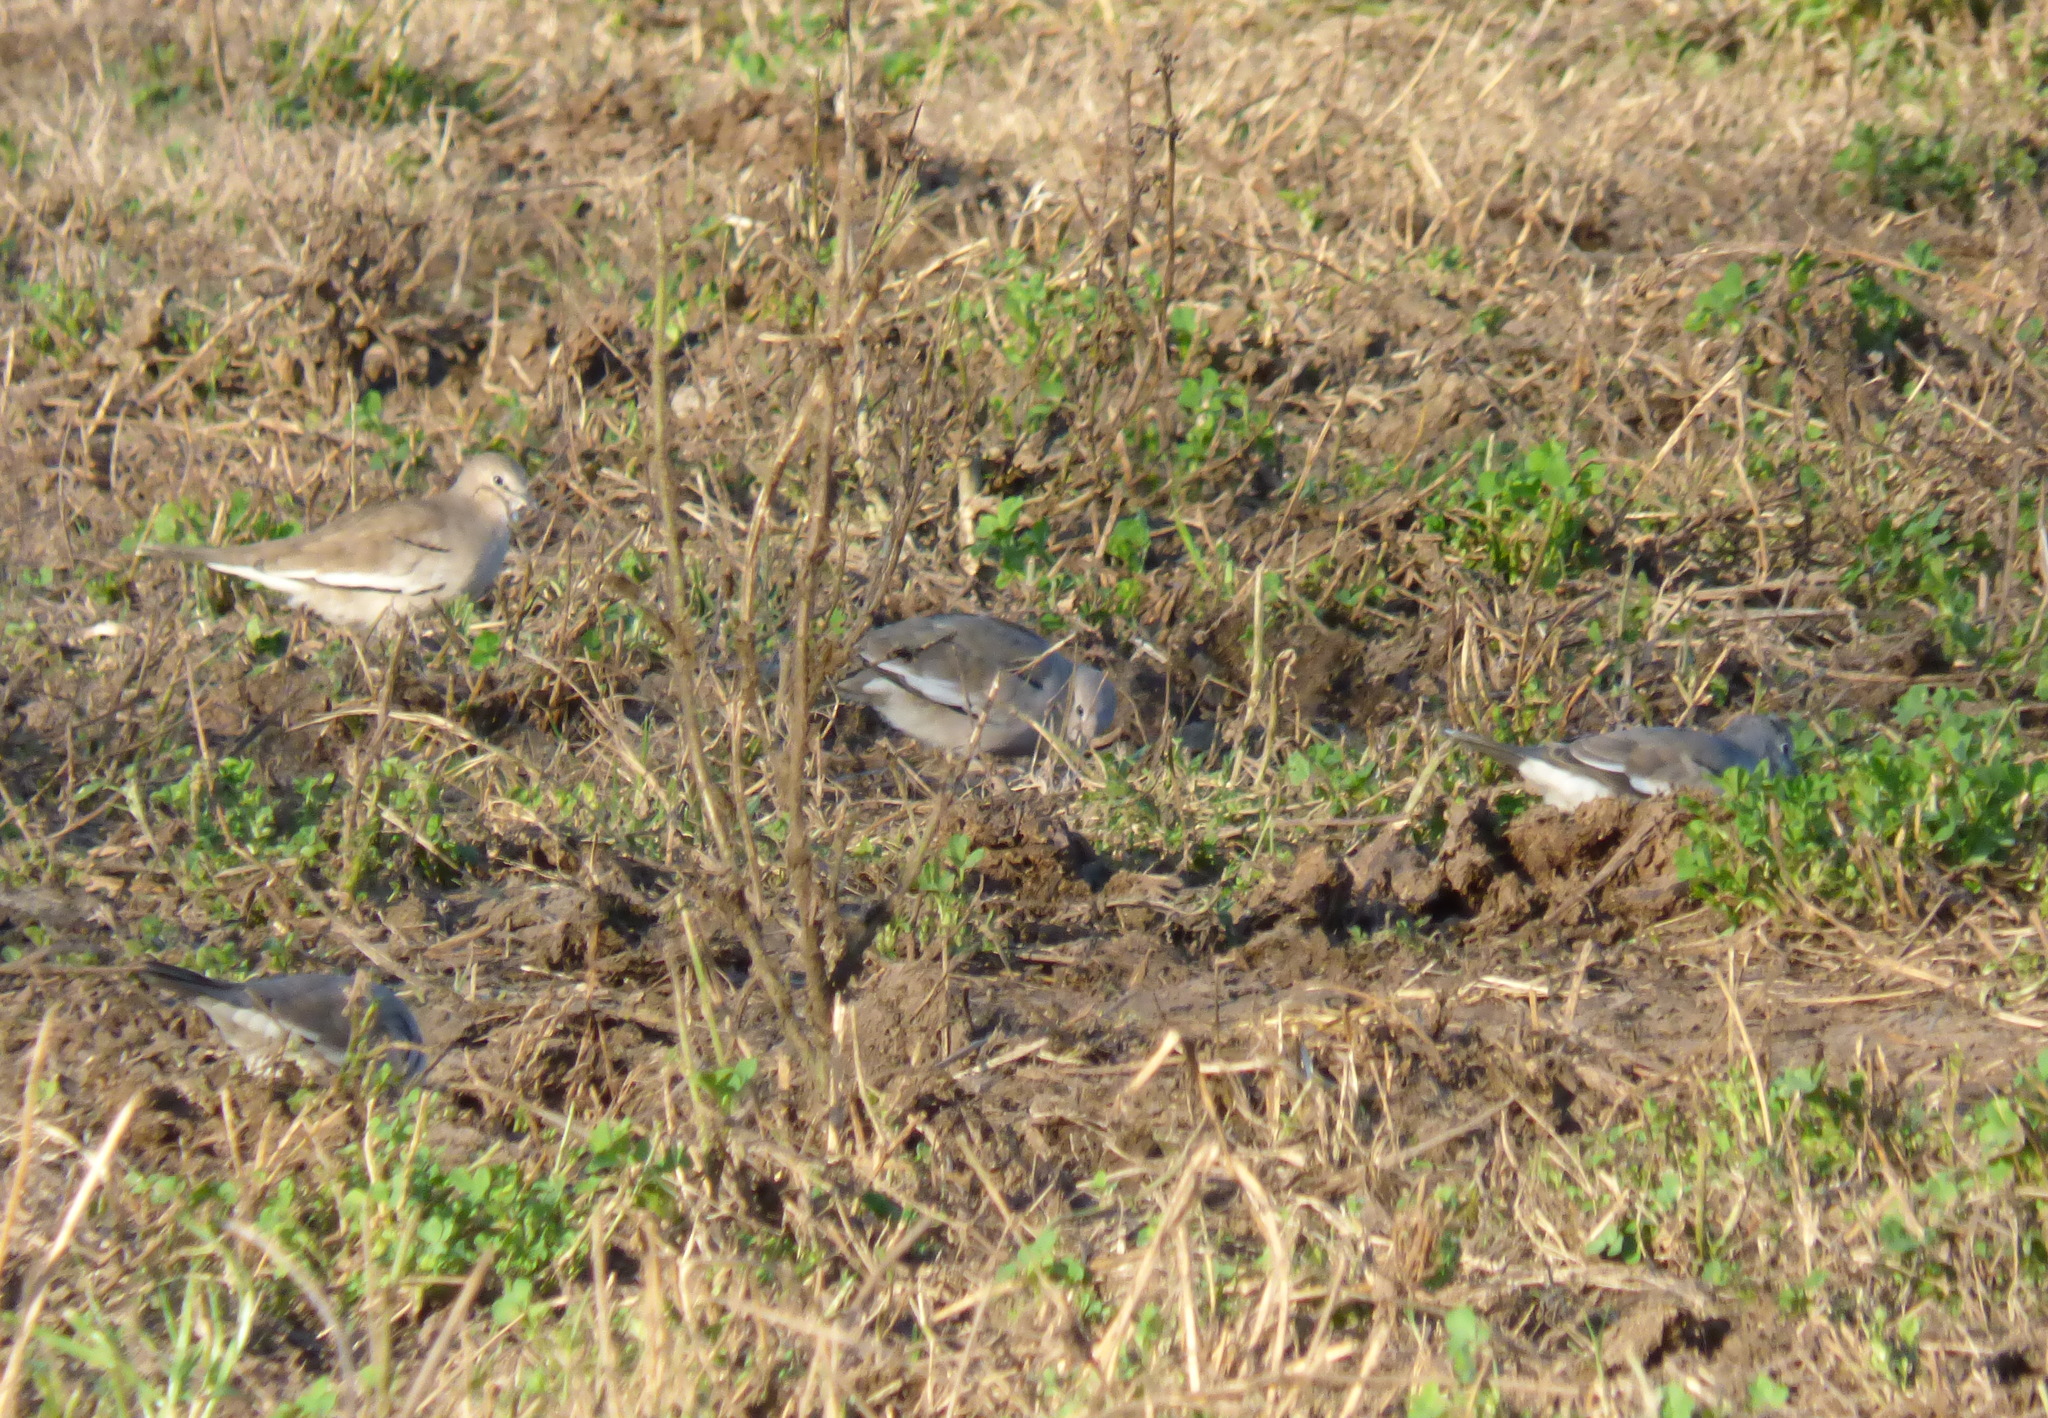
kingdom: Animalia
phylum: Chordata
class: Aves
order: Columbiformes
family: Columbidae
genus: Columbina
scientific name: Columbina picui
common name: Picui ground dove
